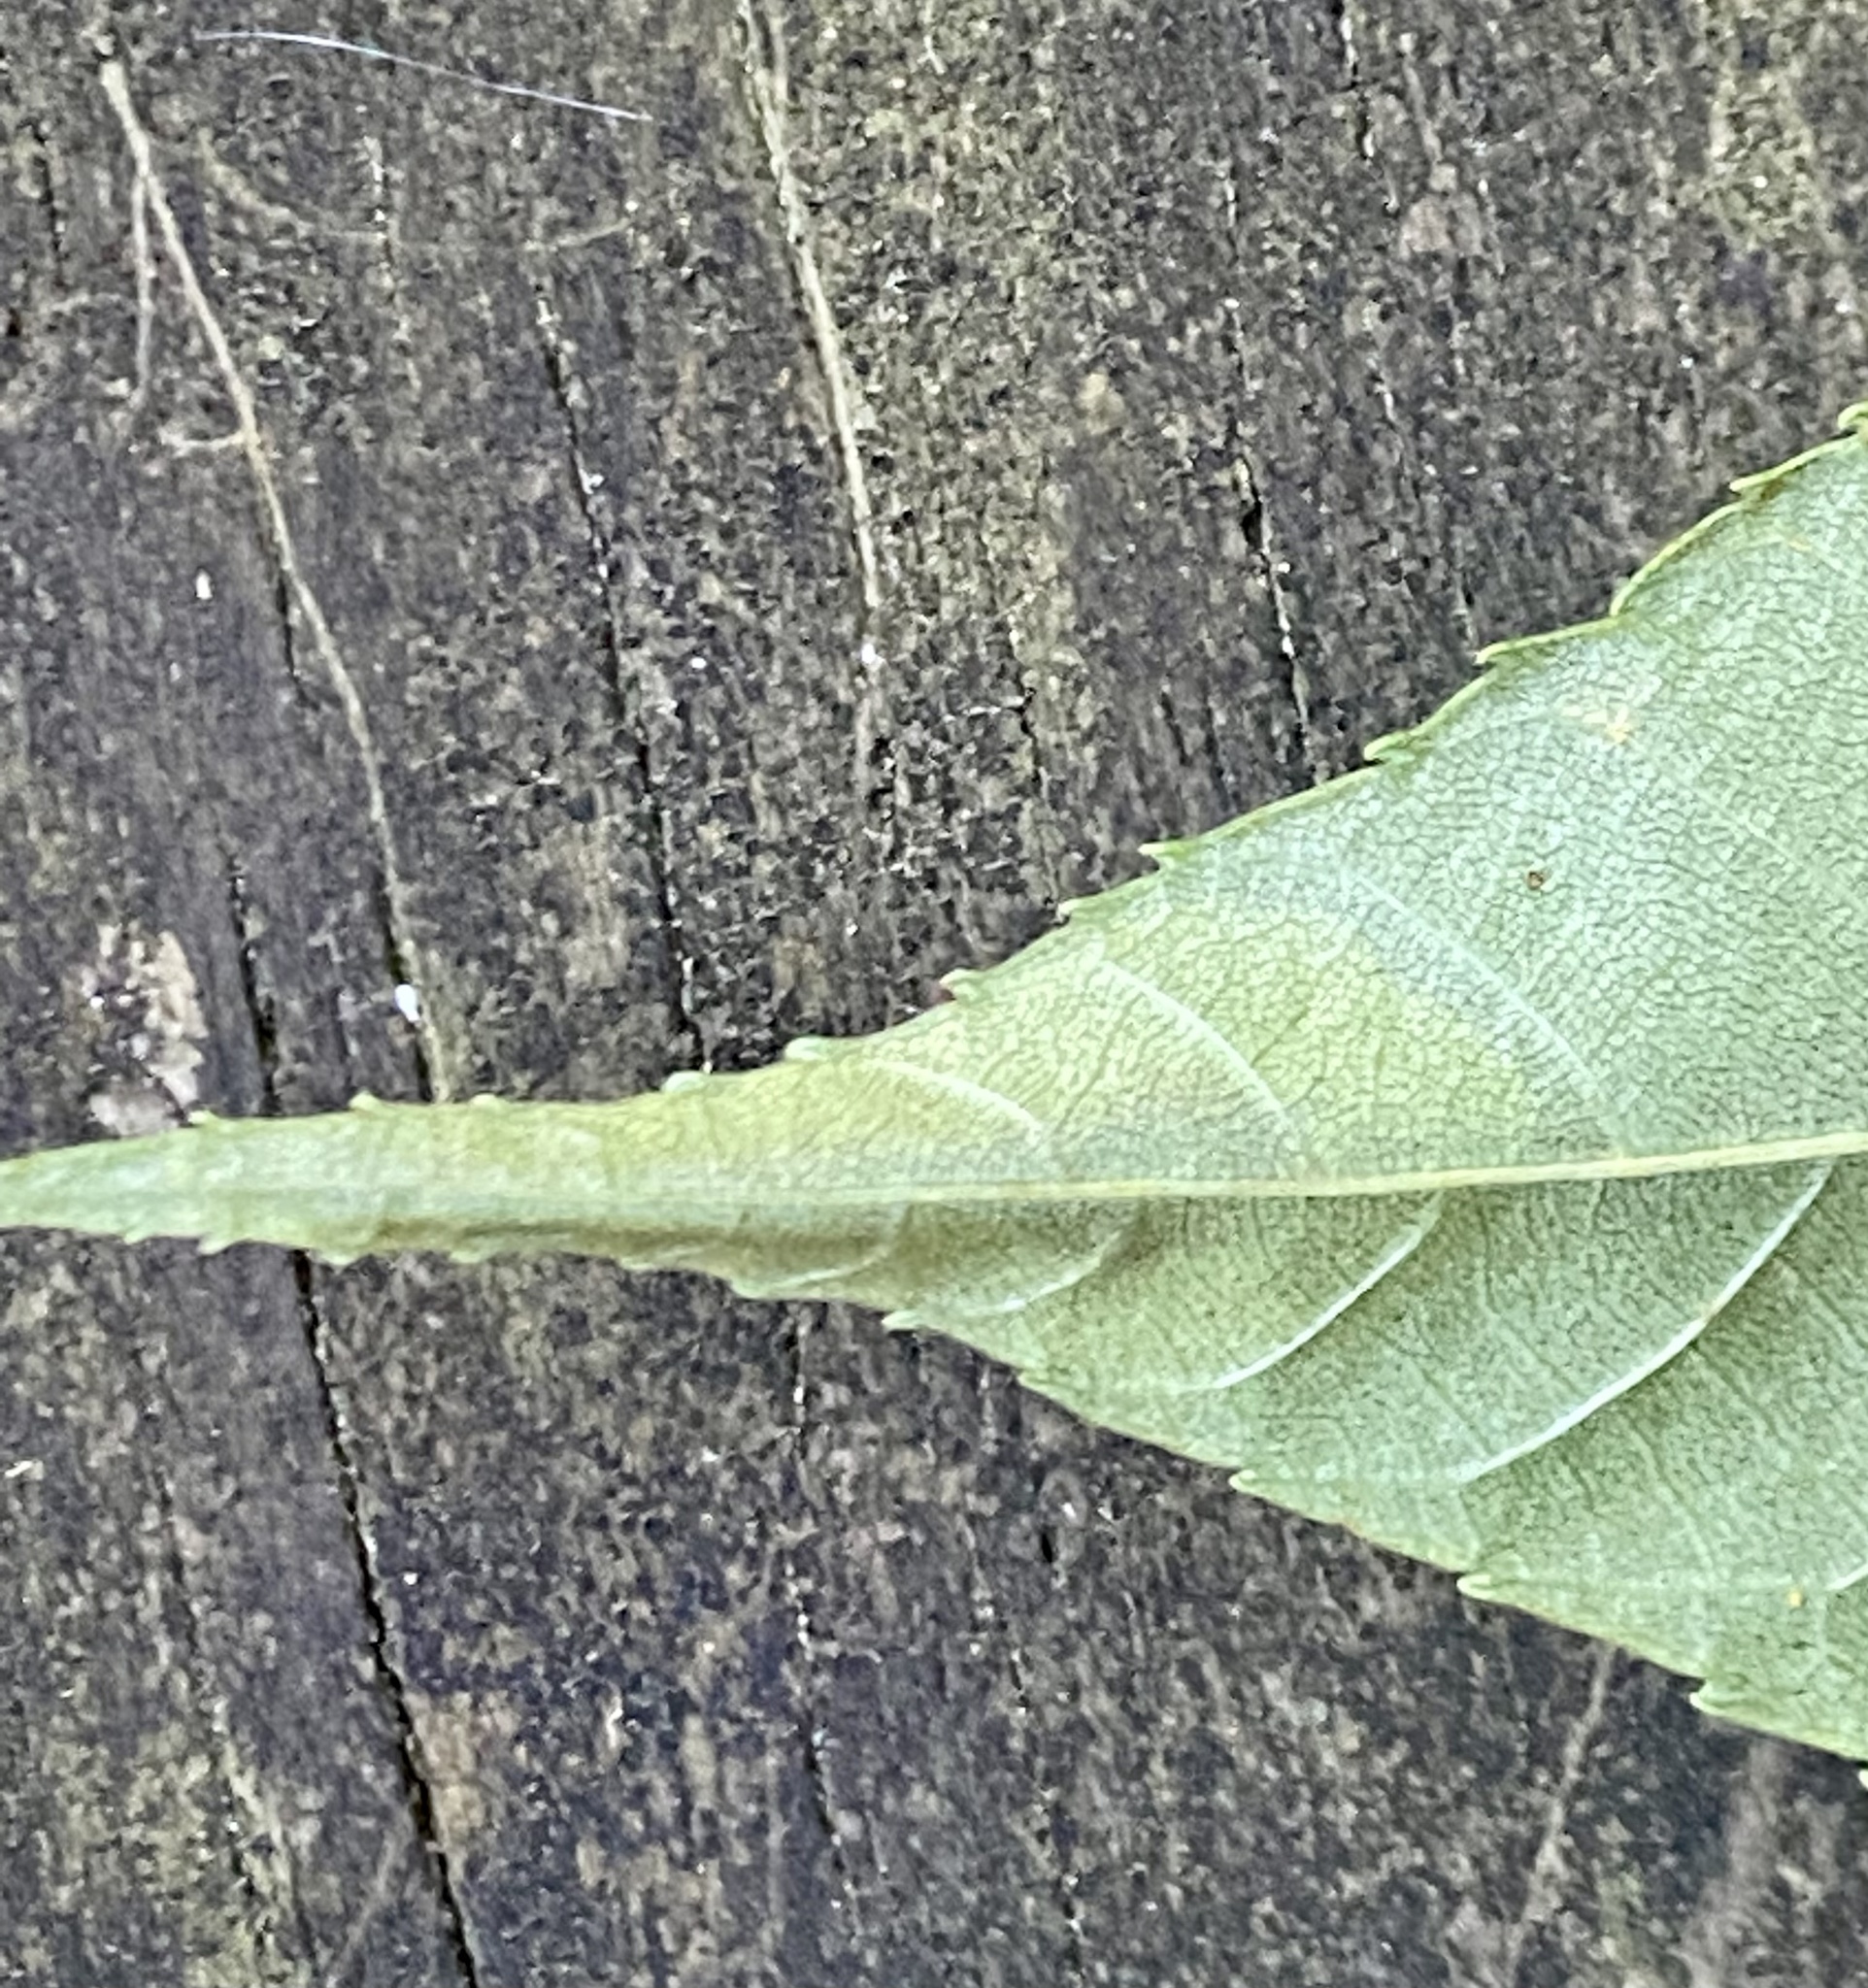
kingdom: Animalia
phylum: Arthropoda
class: Insecta
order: Lepidoptera
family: Gracillariidae
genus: Cameraria
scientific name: Cameraria caryaefoliella
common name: Pecan leafminer moth
